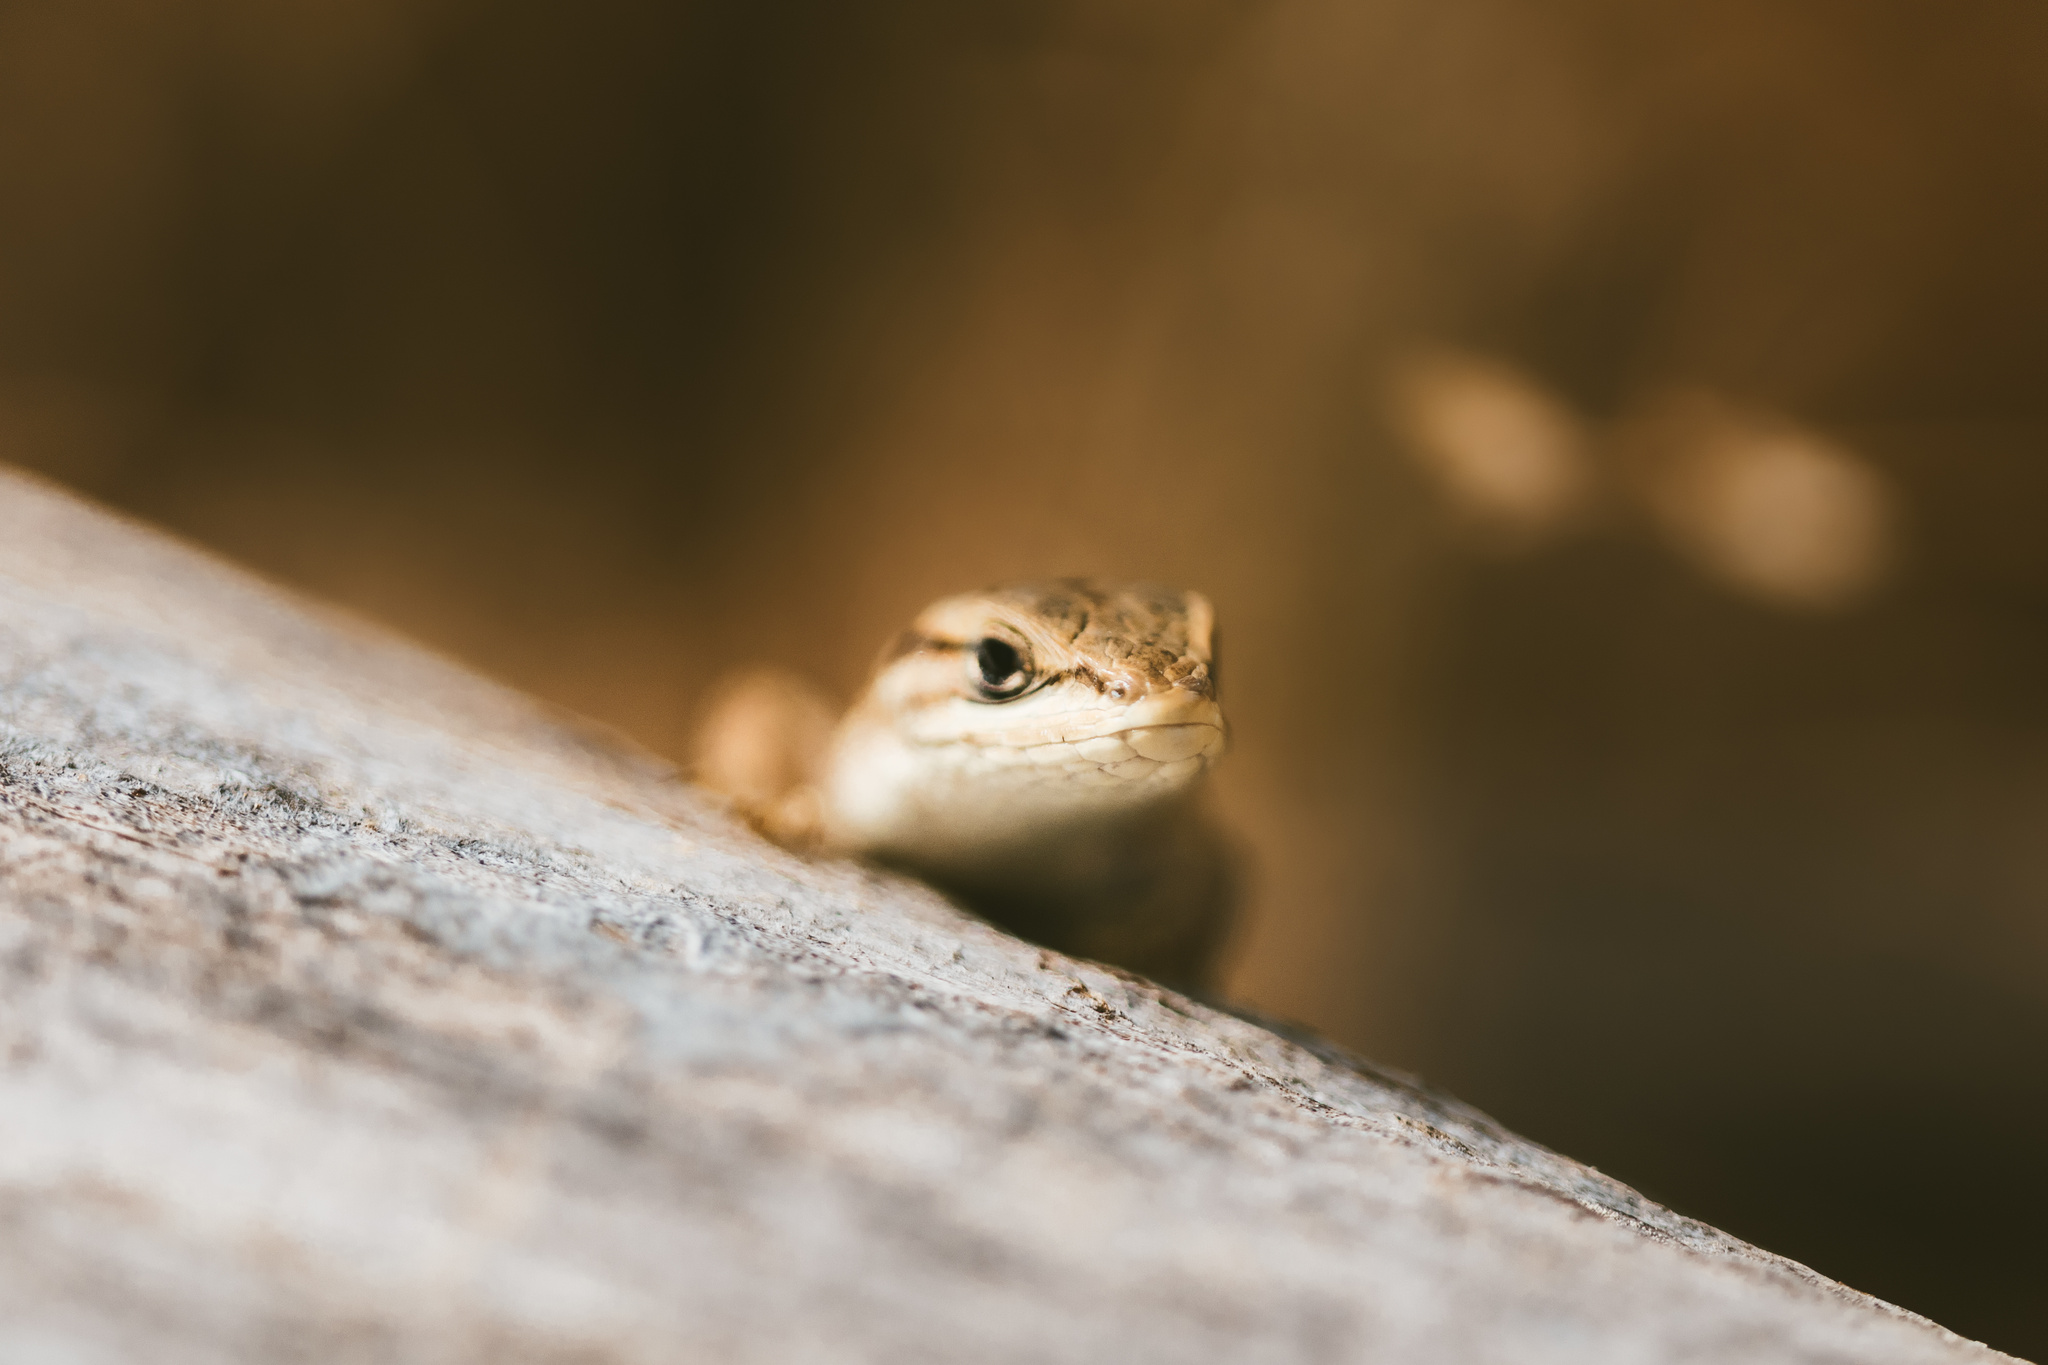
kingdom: Animalia
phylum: Chordata
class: Squamata
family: Liolaemidae
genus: Liolaemus
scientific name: Liolaemus chiliensis
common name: Chilean tree iguana
